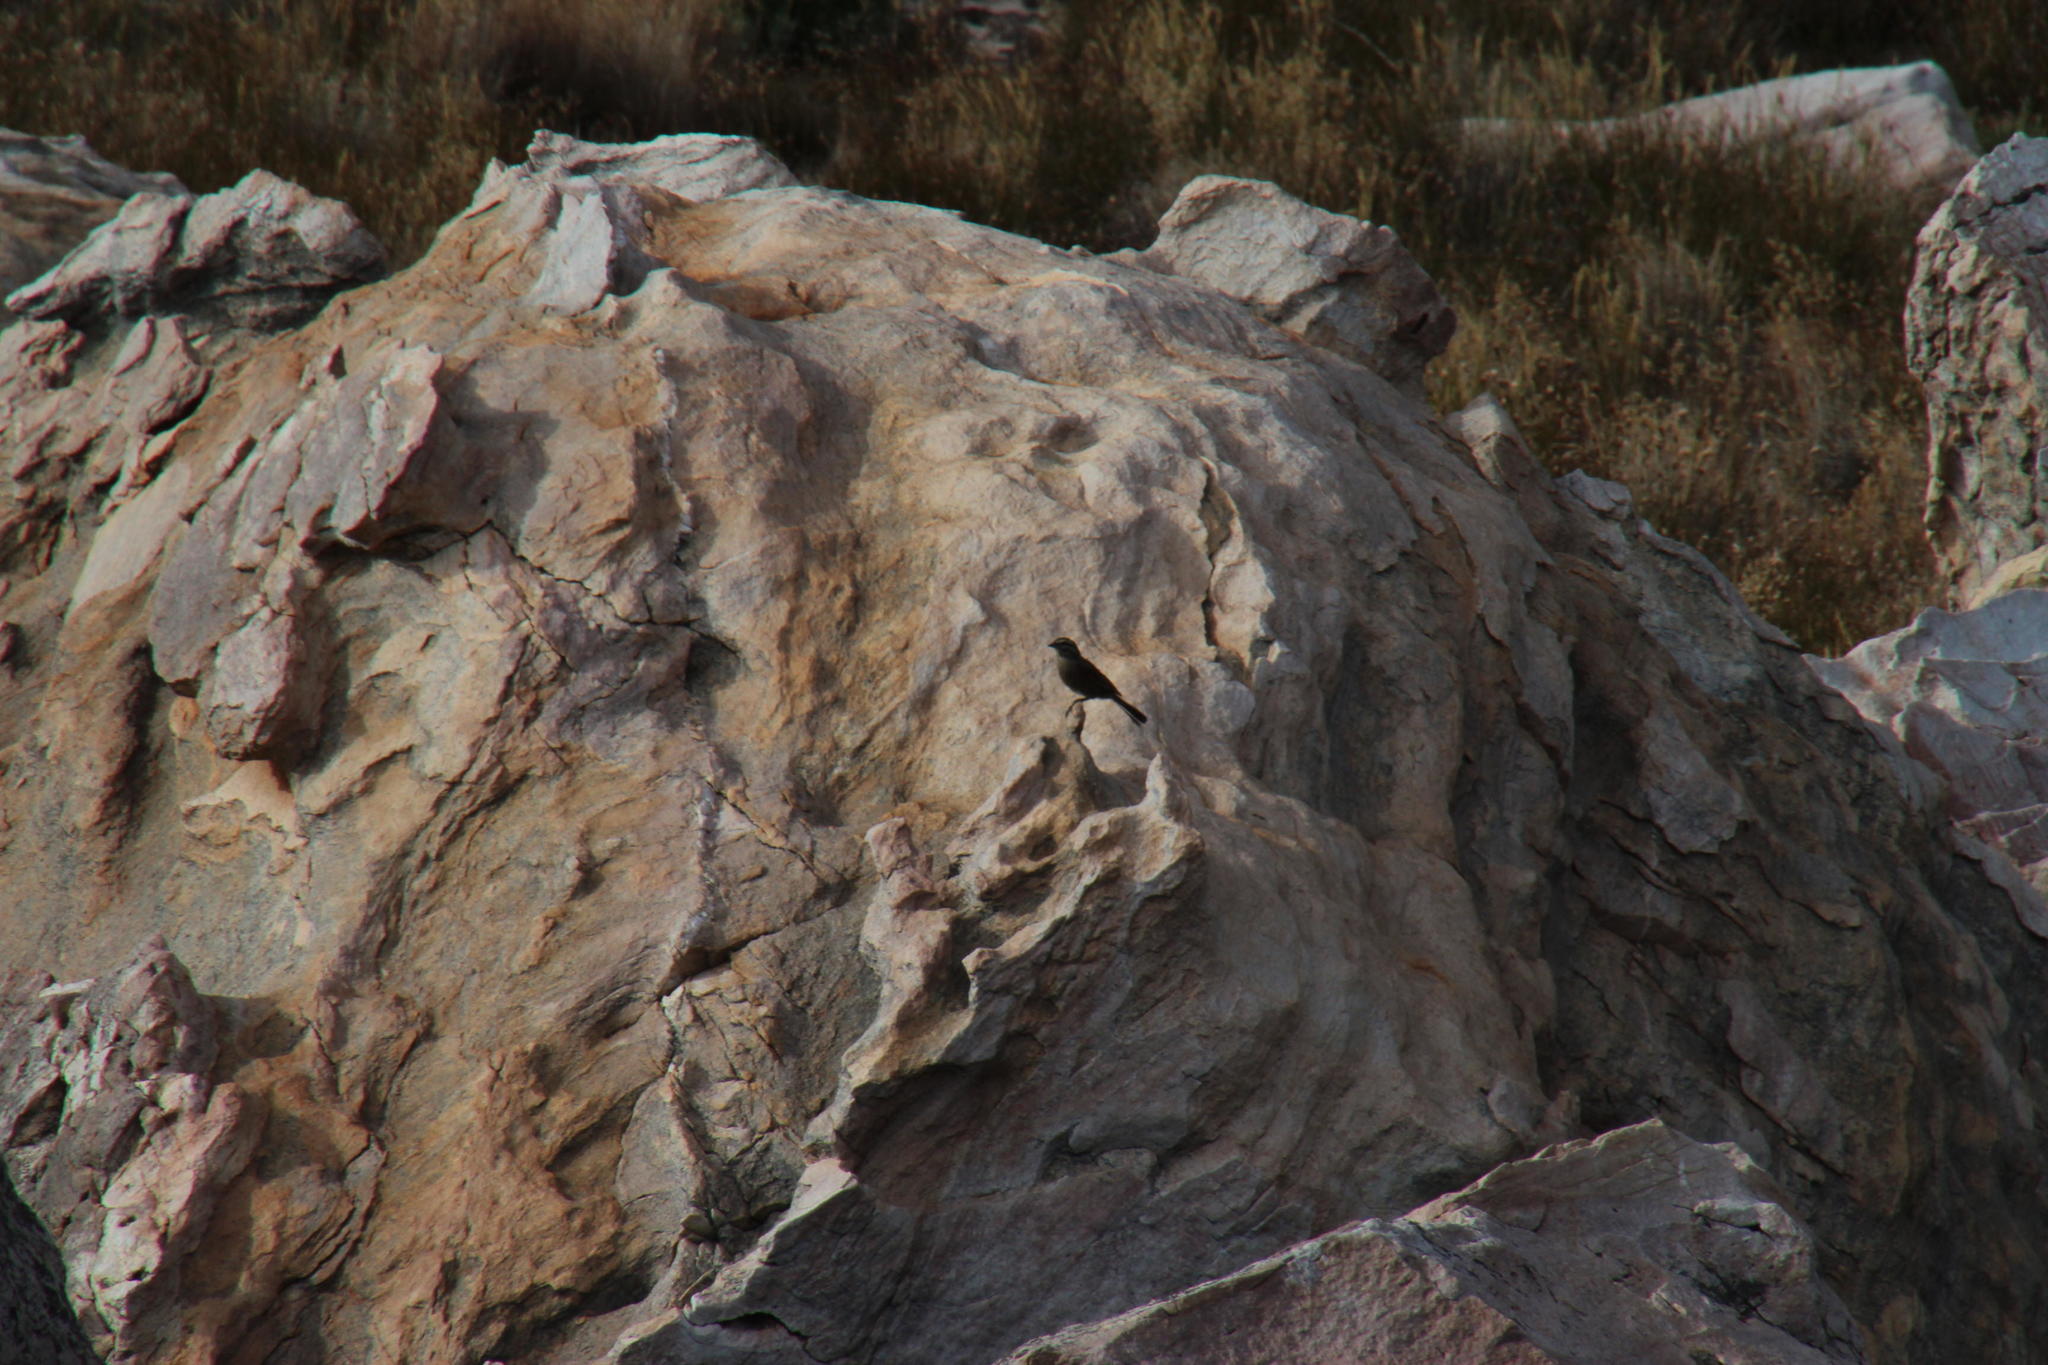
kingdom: Animalia
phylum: Chordata
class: Aves
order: Passeriformes
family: Emberizidae
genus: Emberiza
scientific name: Emberiza capensis
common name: Cape bunting
